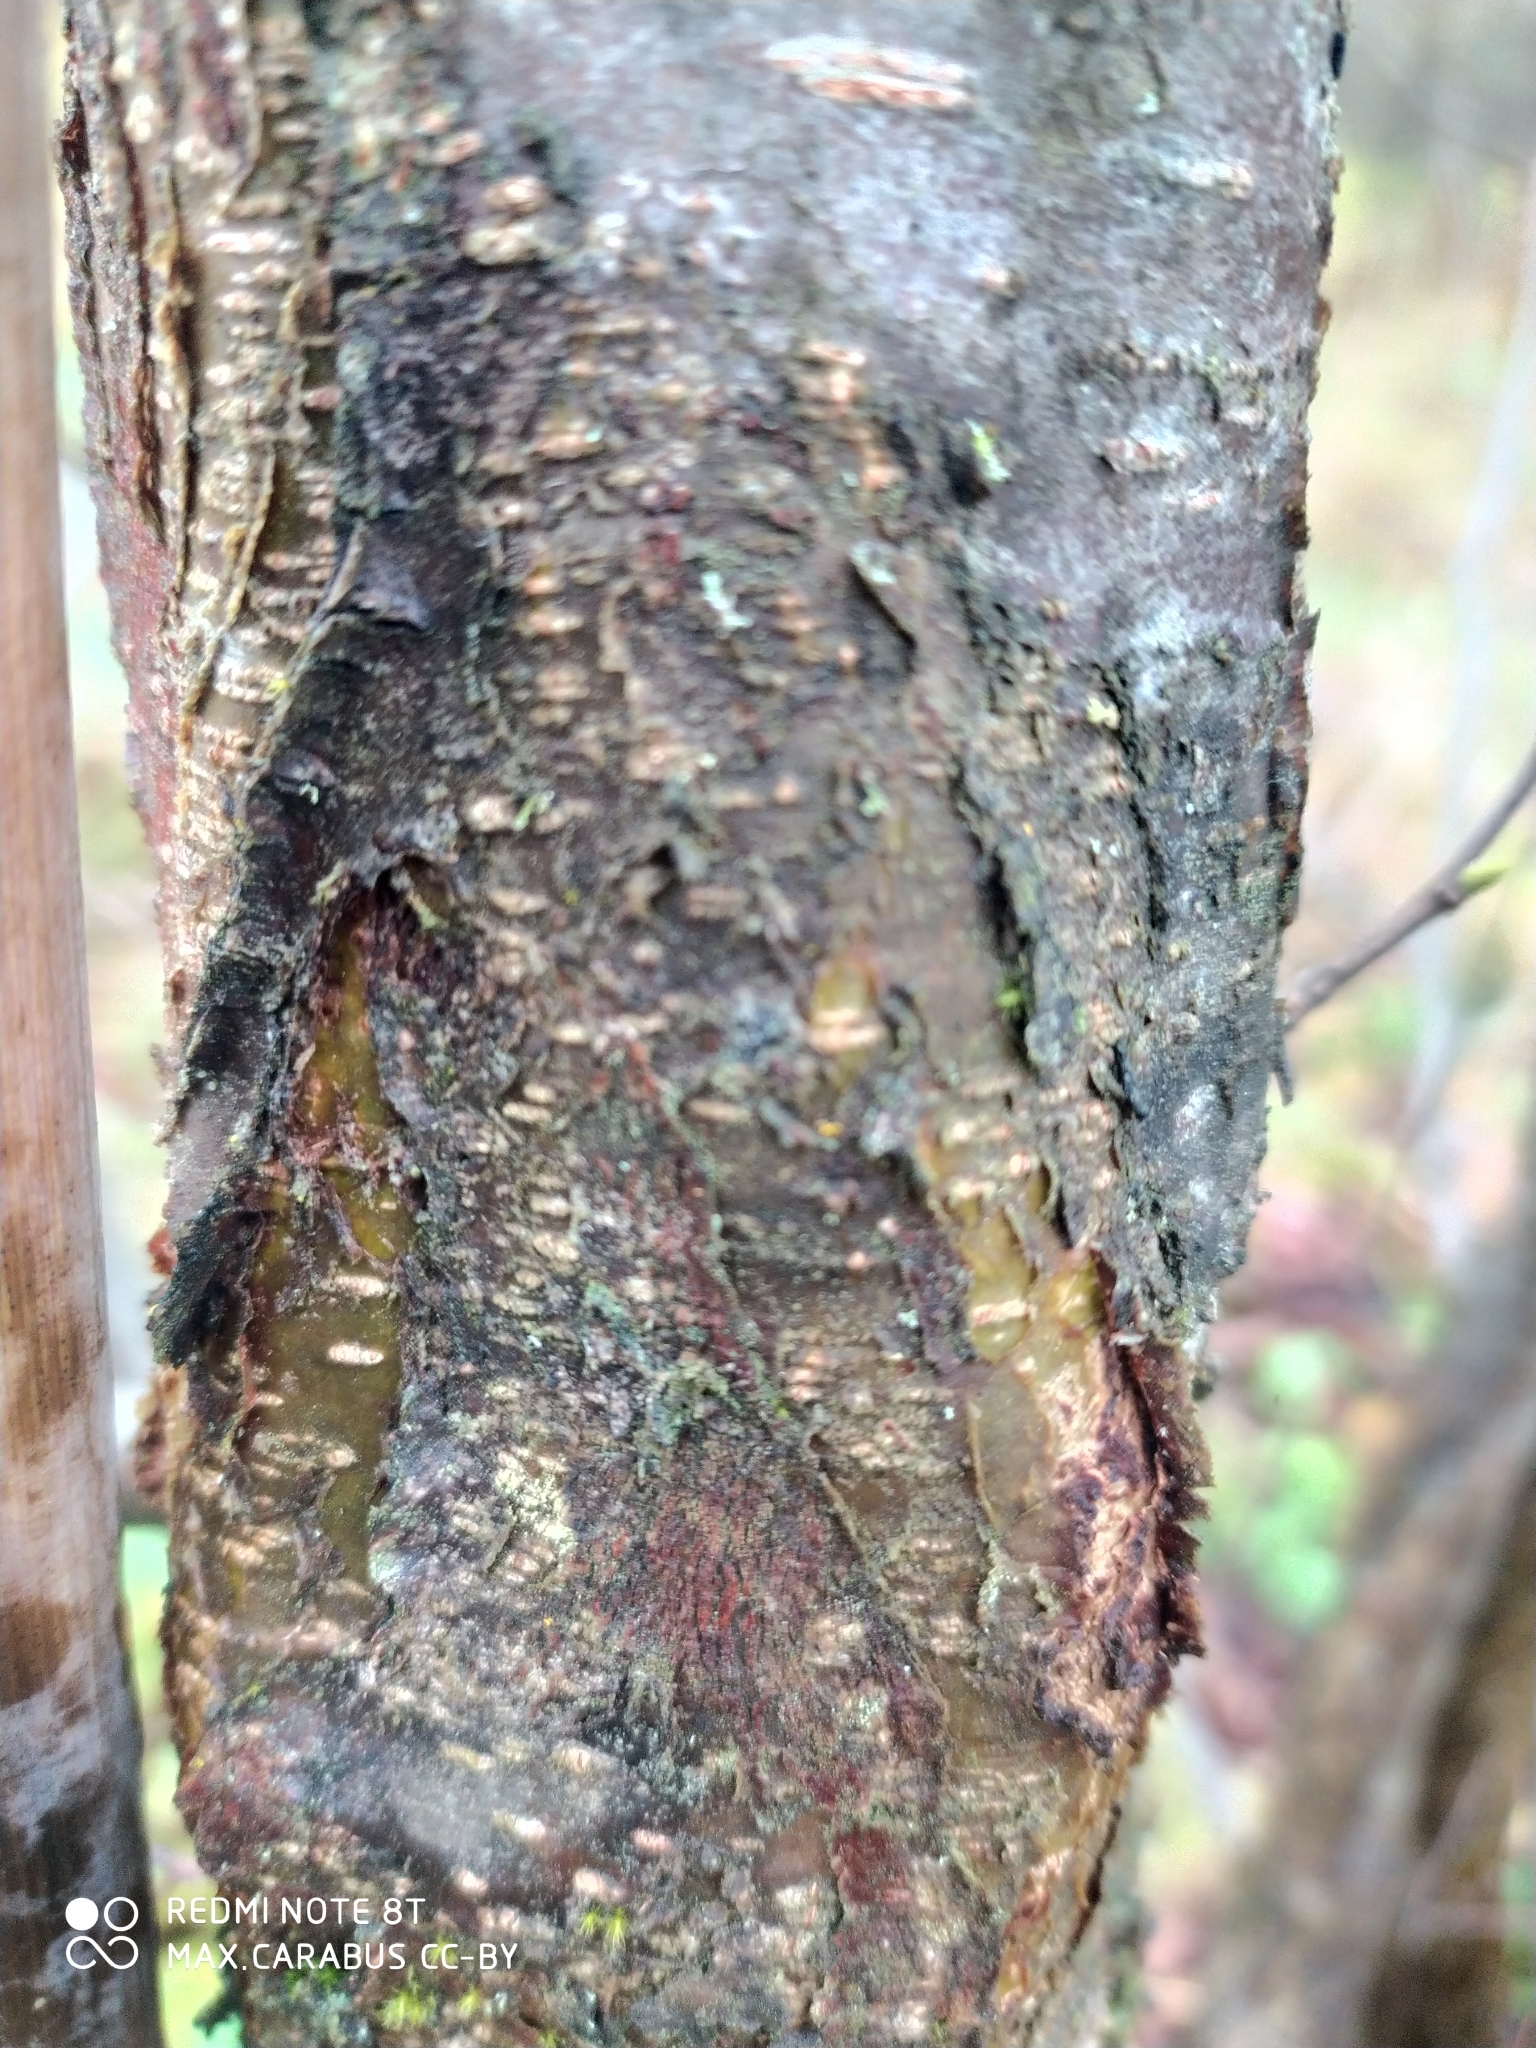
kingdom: Plantae
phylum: Tracheophyta
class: Magnoliopsida
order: Fagales
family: Betulaceae
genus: Corylus
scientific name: Corylus avellana
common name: European hazel
